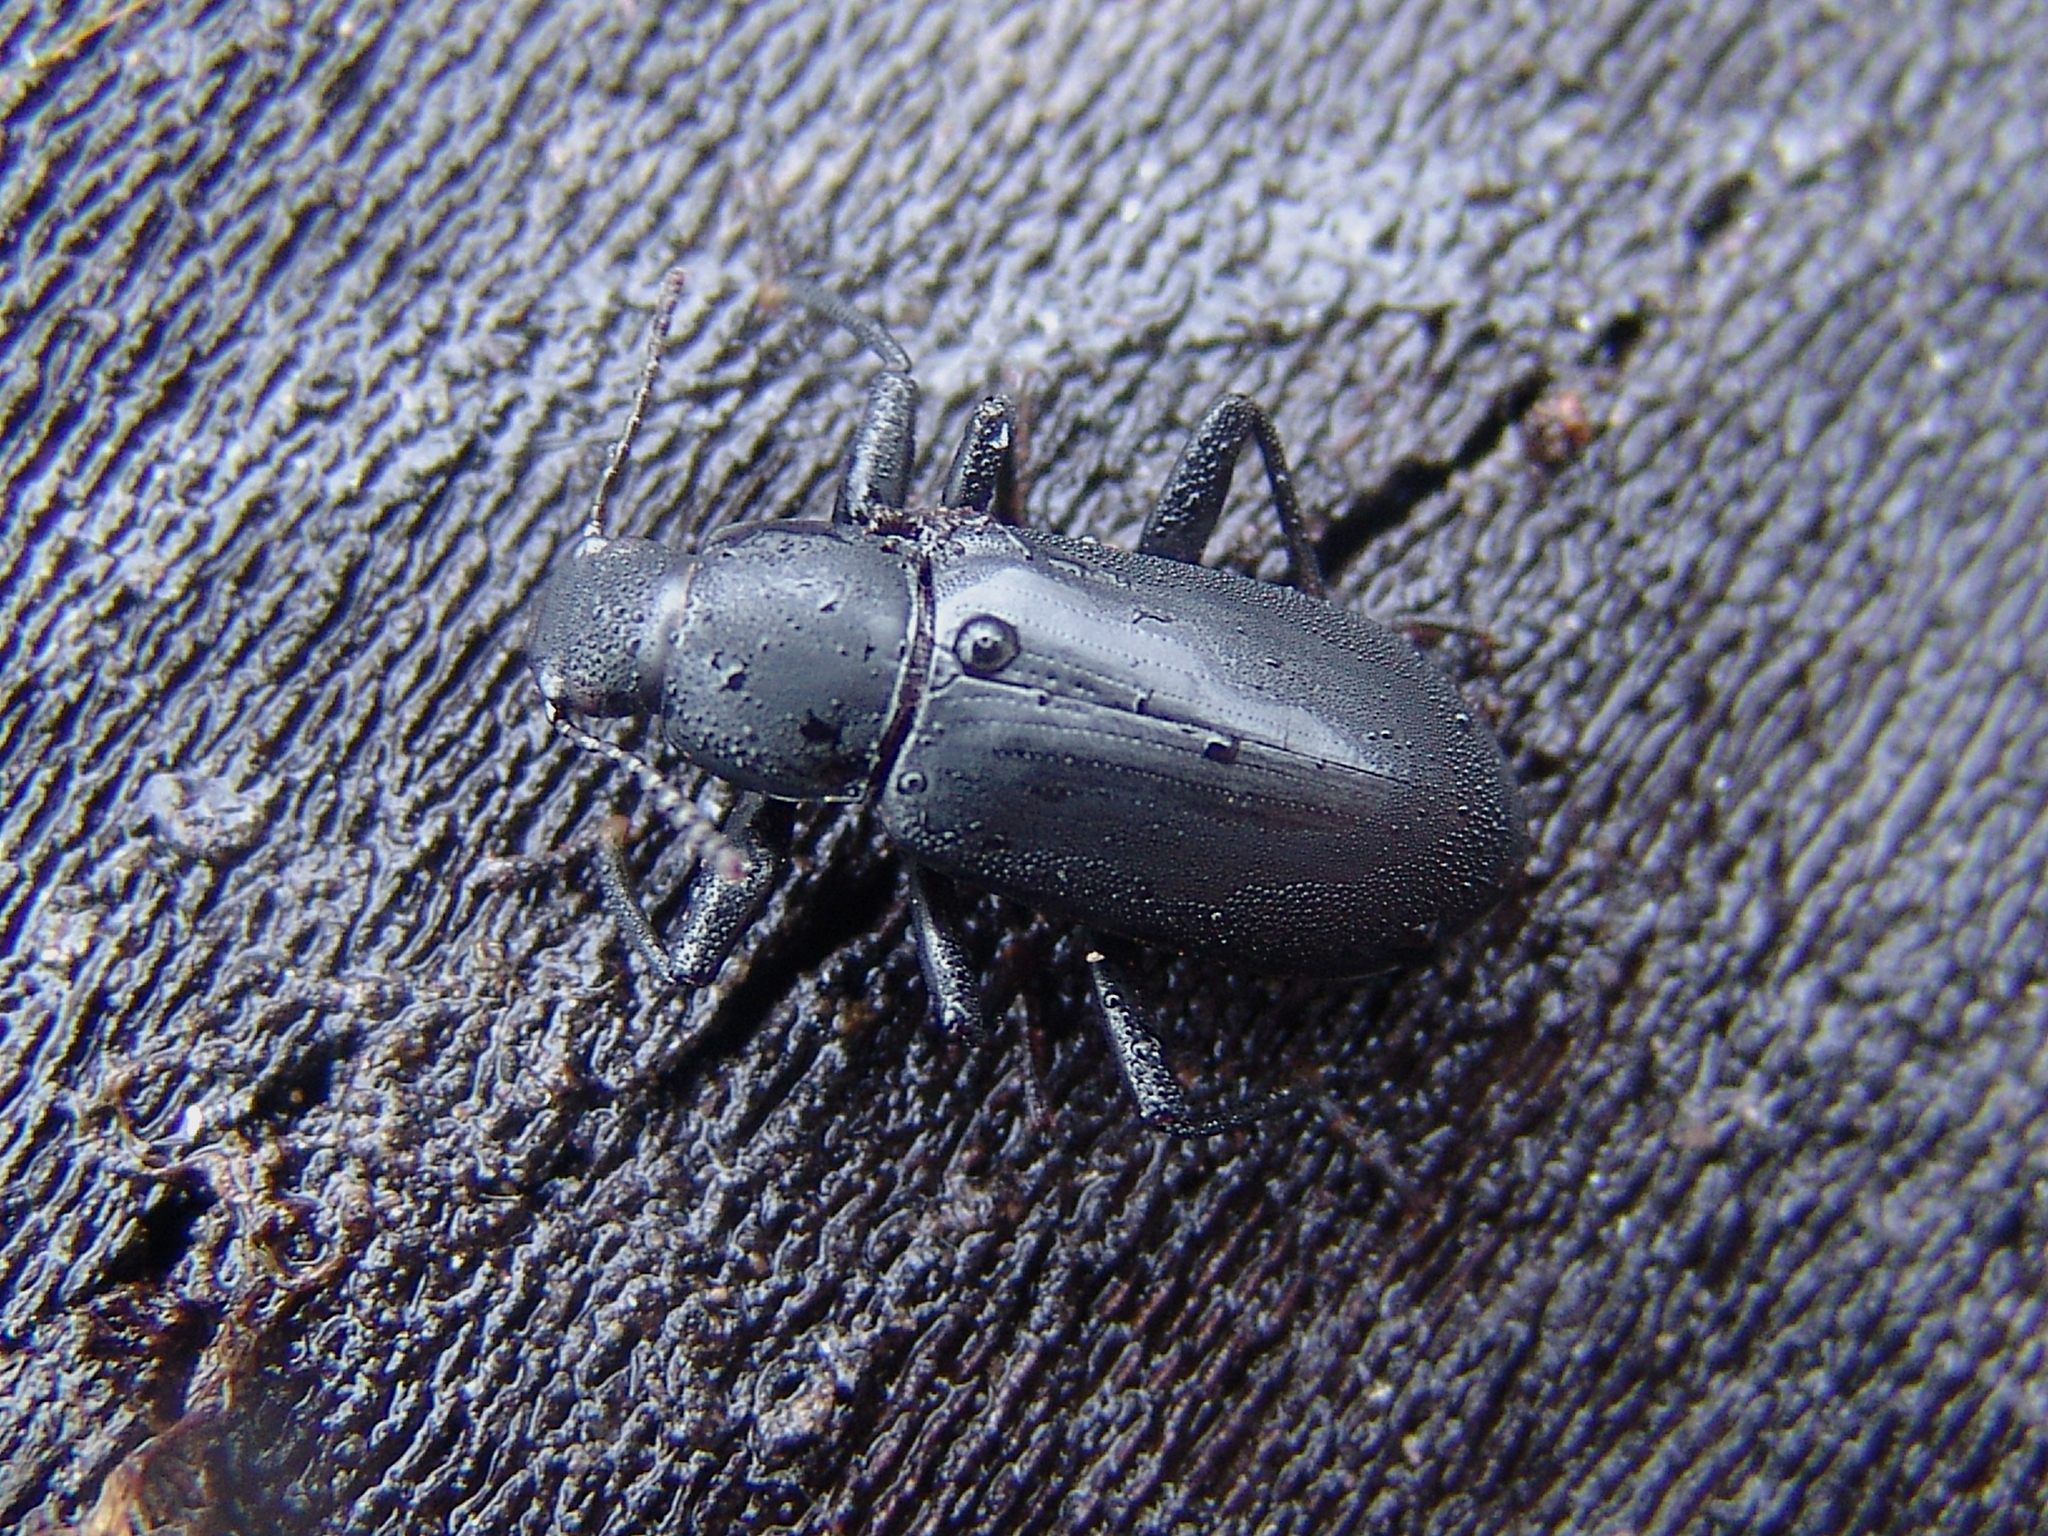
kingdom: Animalia
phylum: Arthropoda
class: Insecta
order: Coleoptera
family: Tenebrionidae
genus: Alobates
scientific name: Alobates
